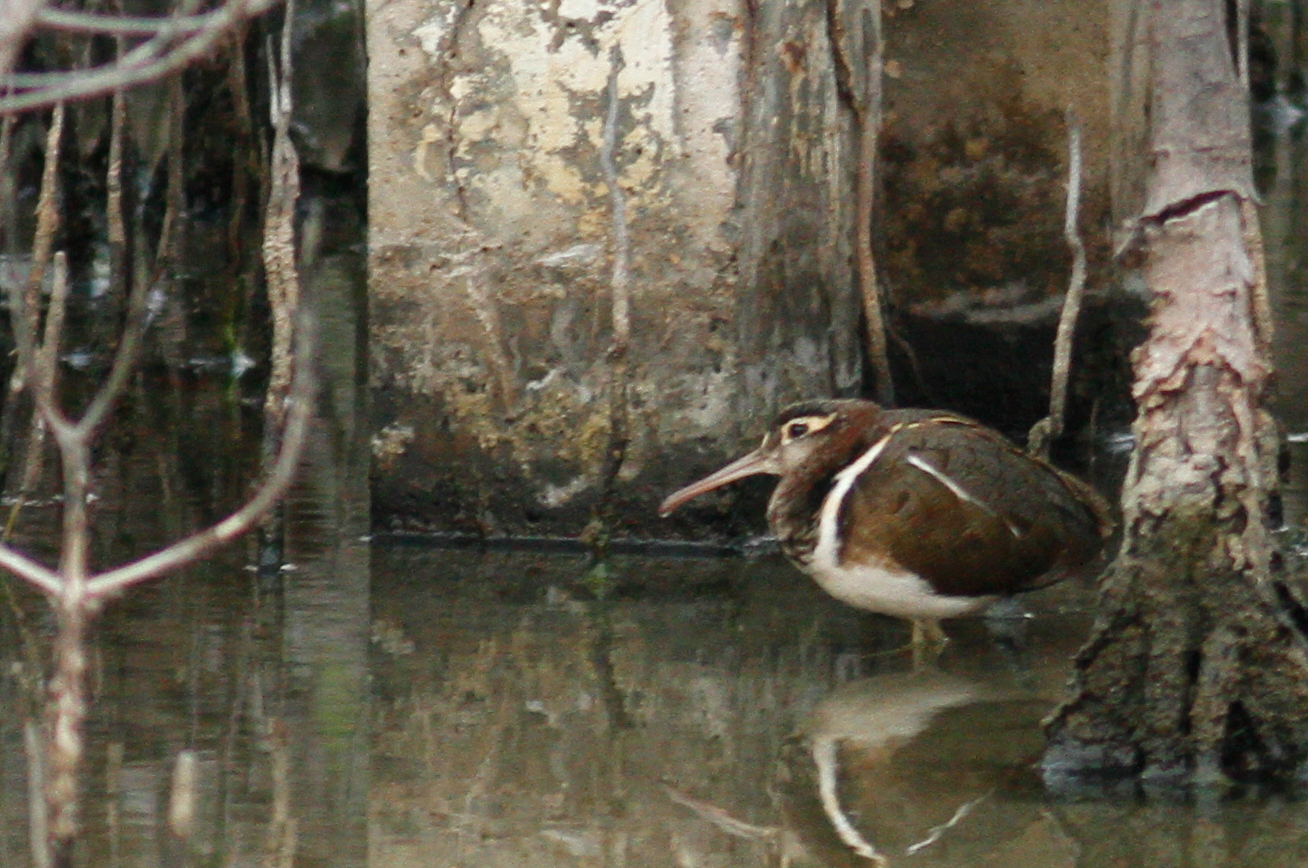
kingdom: Animalia
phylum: Chordata
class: Aves
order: Charadriiformes
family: Rostratulidae
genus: Rostratula
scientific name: Rostratula benghalensis
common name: Greater painted-snipe
